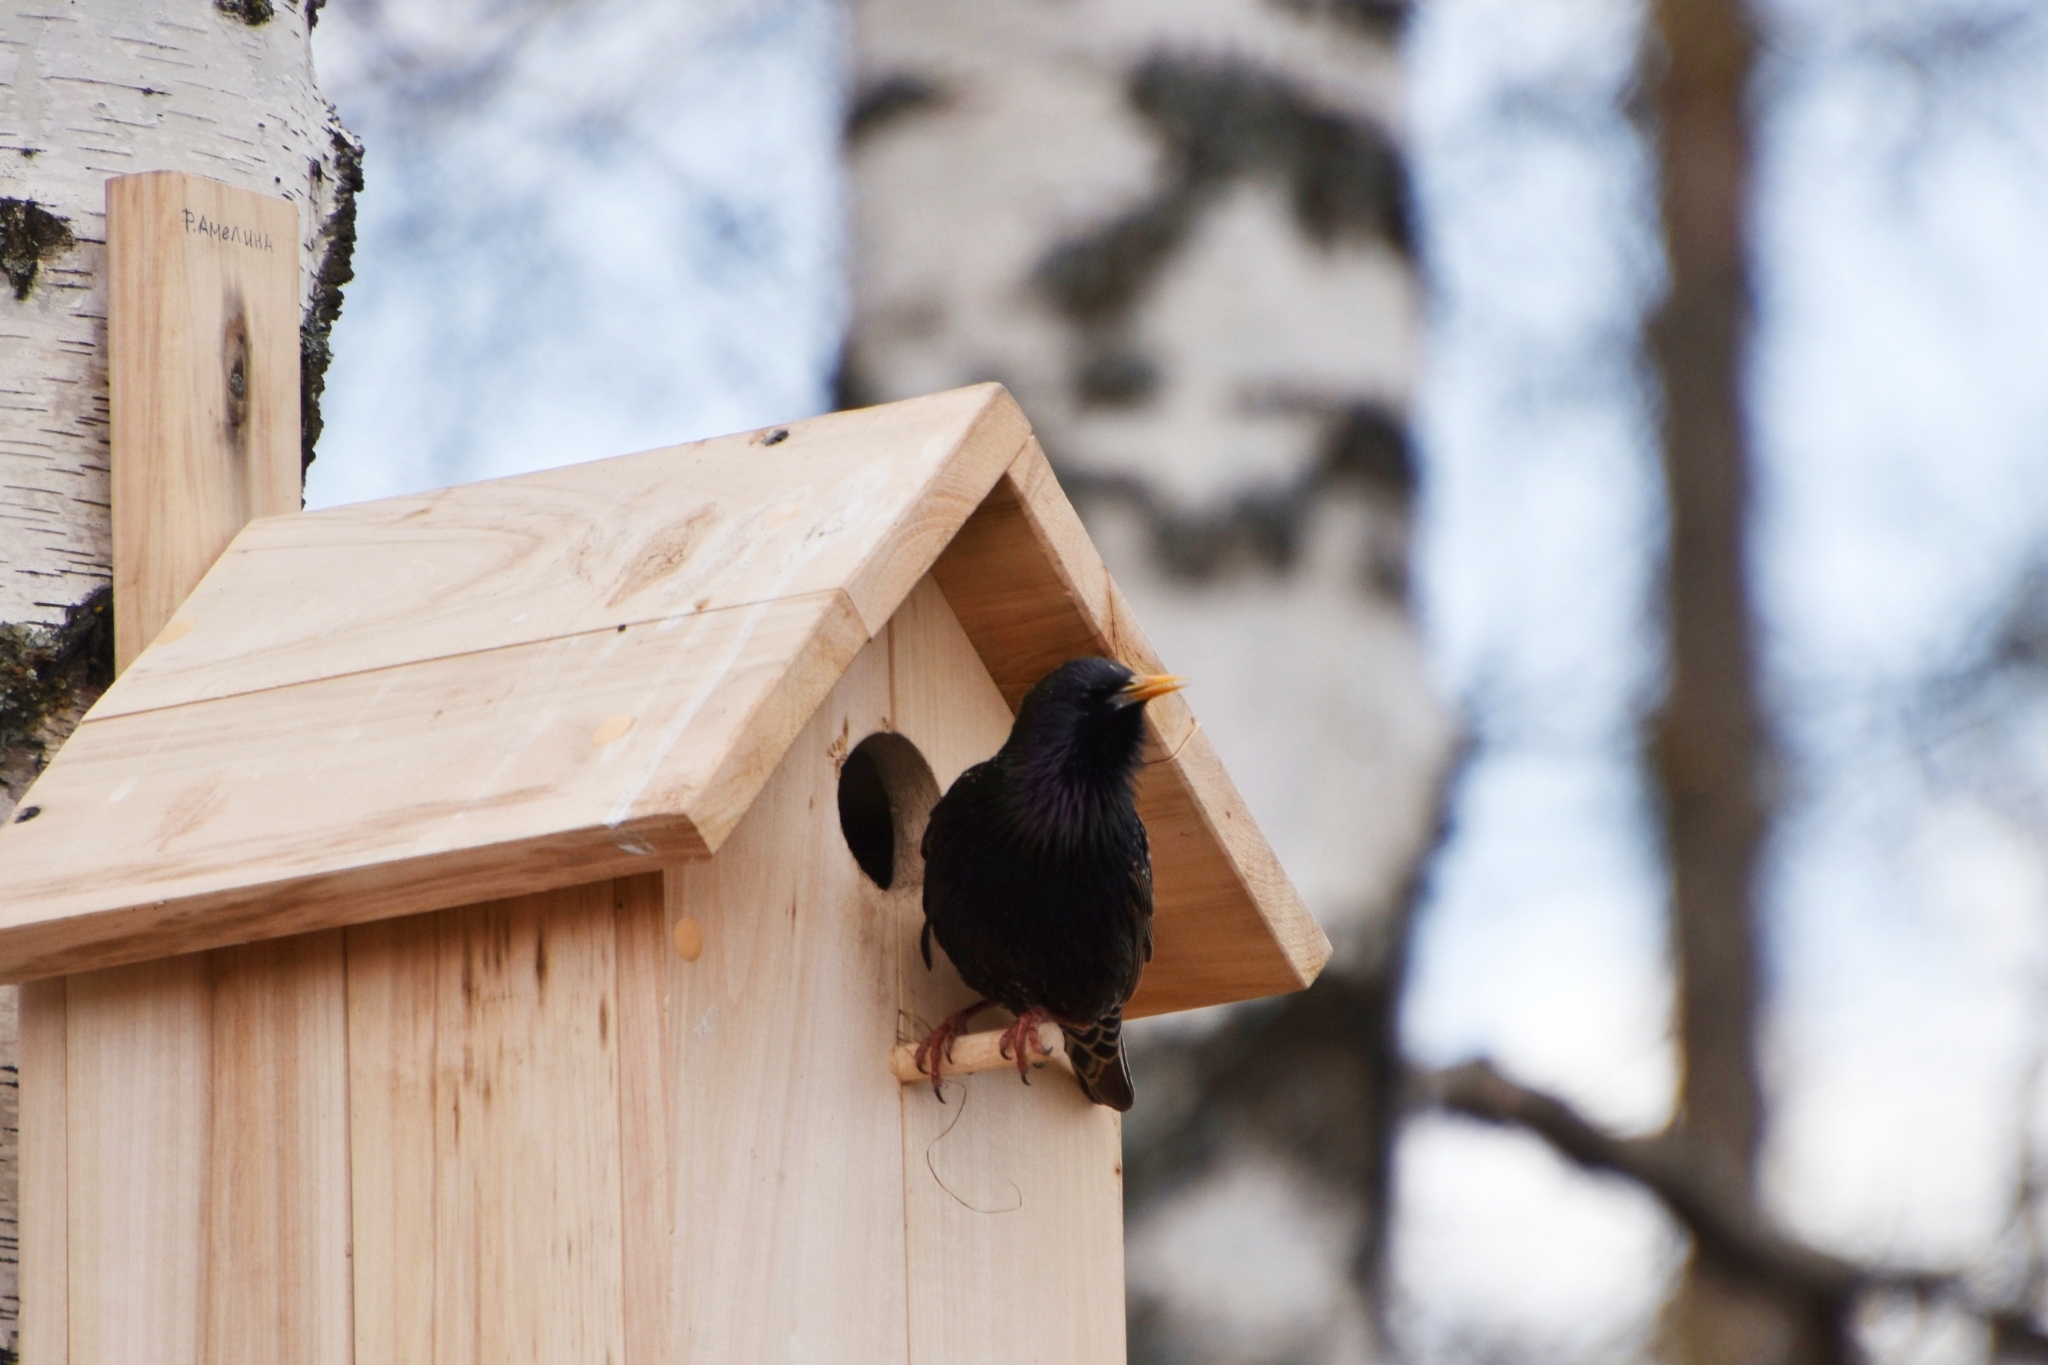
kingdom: Animalia
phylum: Chordata
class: Aves
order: Passeriformes
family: Sturnidae
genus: Sturnus
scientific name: Sturnus vulgaris
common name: Common starling
